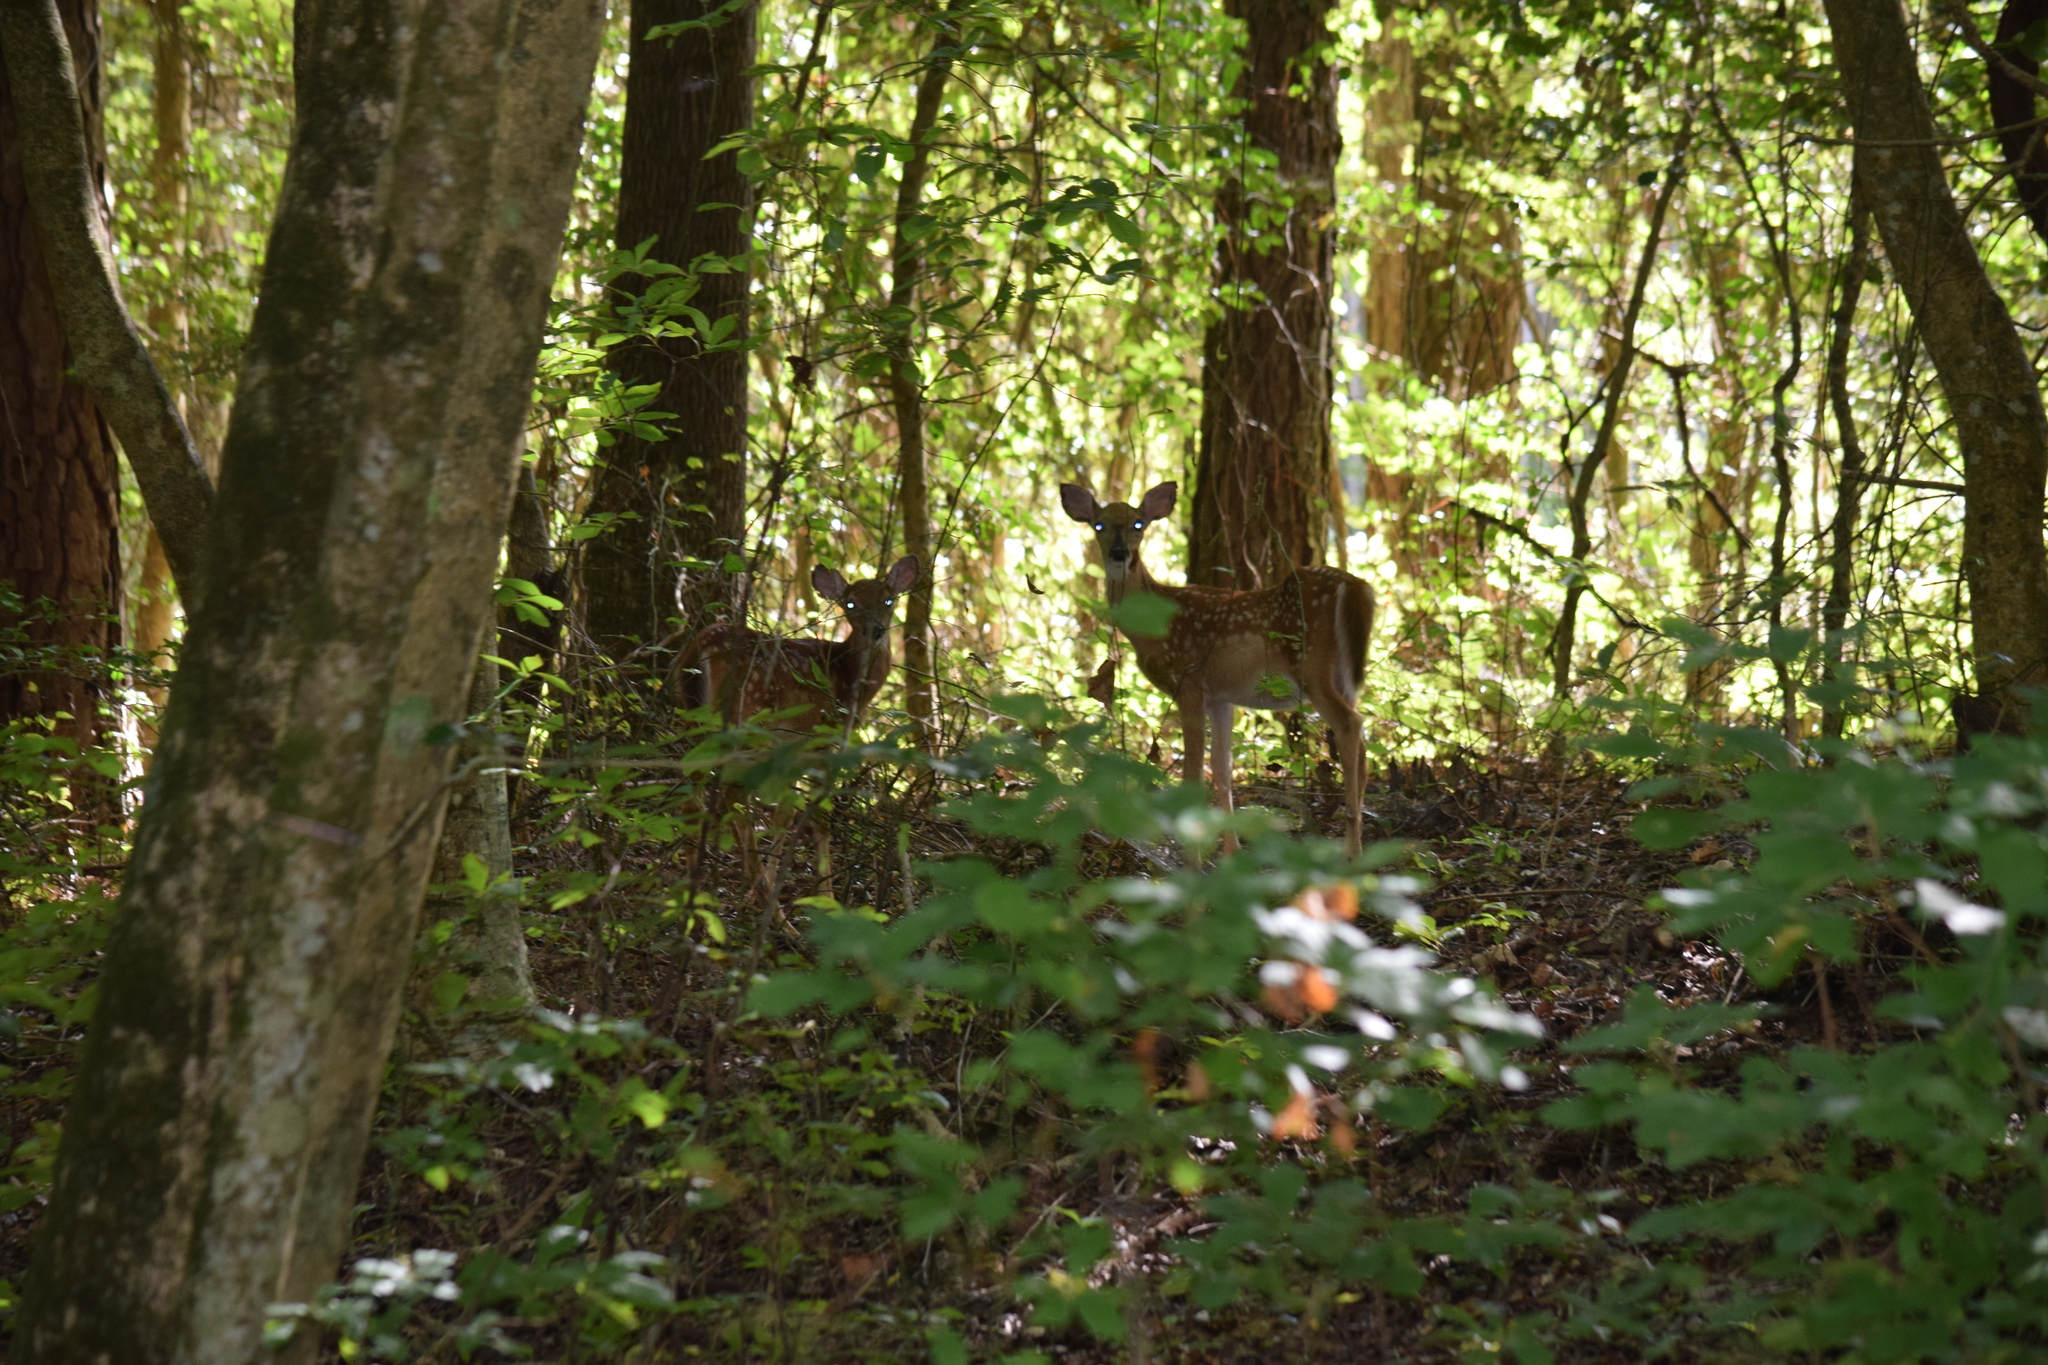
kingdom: Animalia
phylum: Chordata
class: Mammalia
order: Artiodactyla
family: Cervidae
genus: Odocoileus
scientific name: Odocoileus virginianus
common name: White-tailed deer
